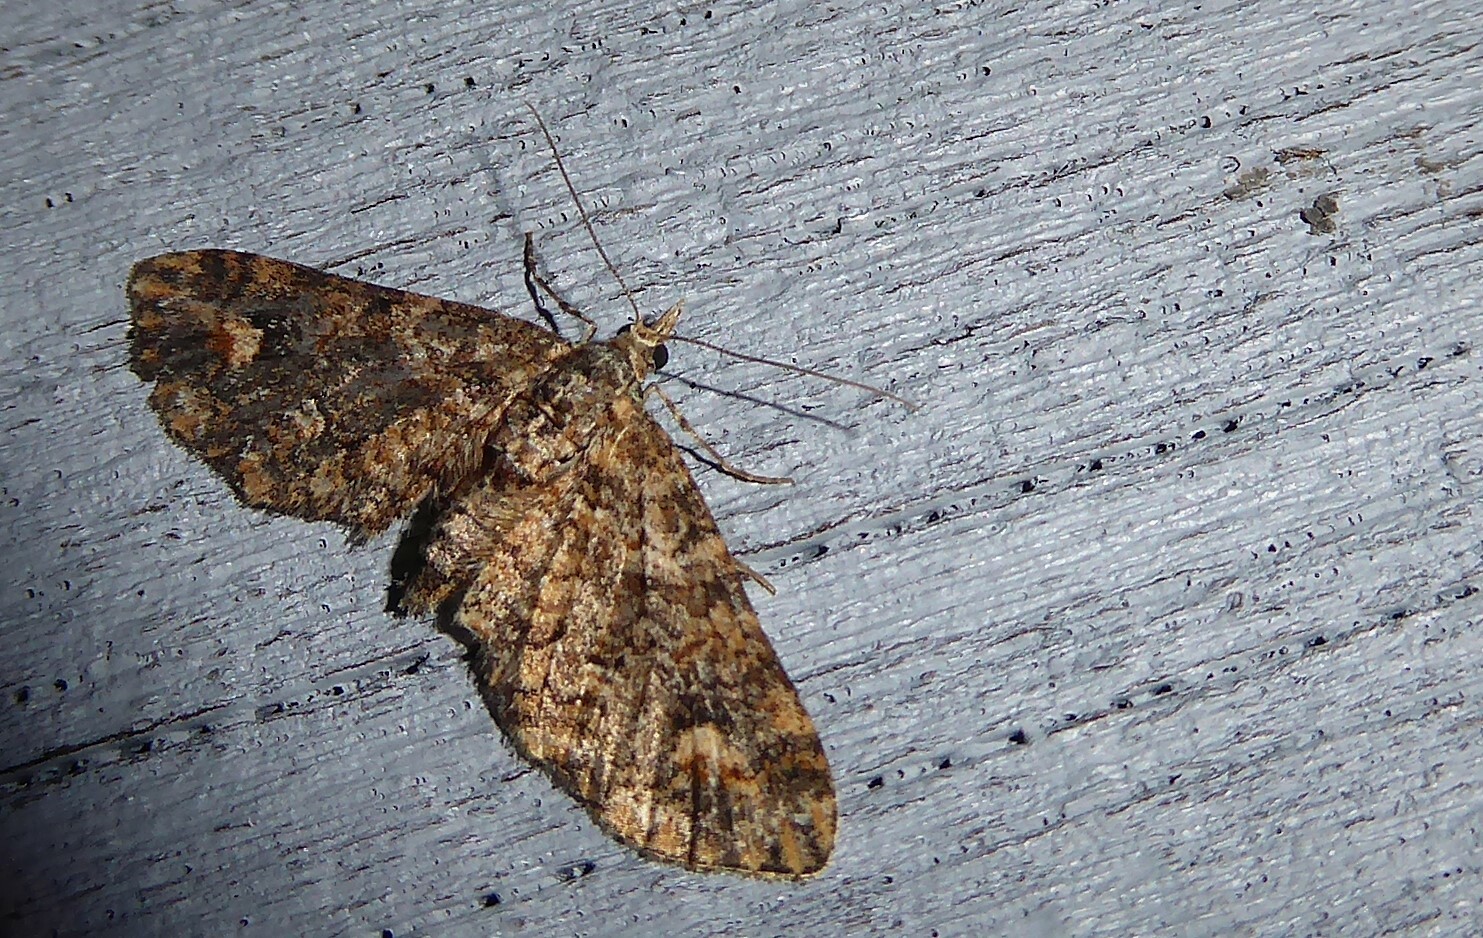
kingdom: Animalia
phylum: Arthropoda
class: Insecta
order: Lepidoptera
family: Geometridae
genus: Pasiphilodes
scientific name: Pasiphilodes testulata
